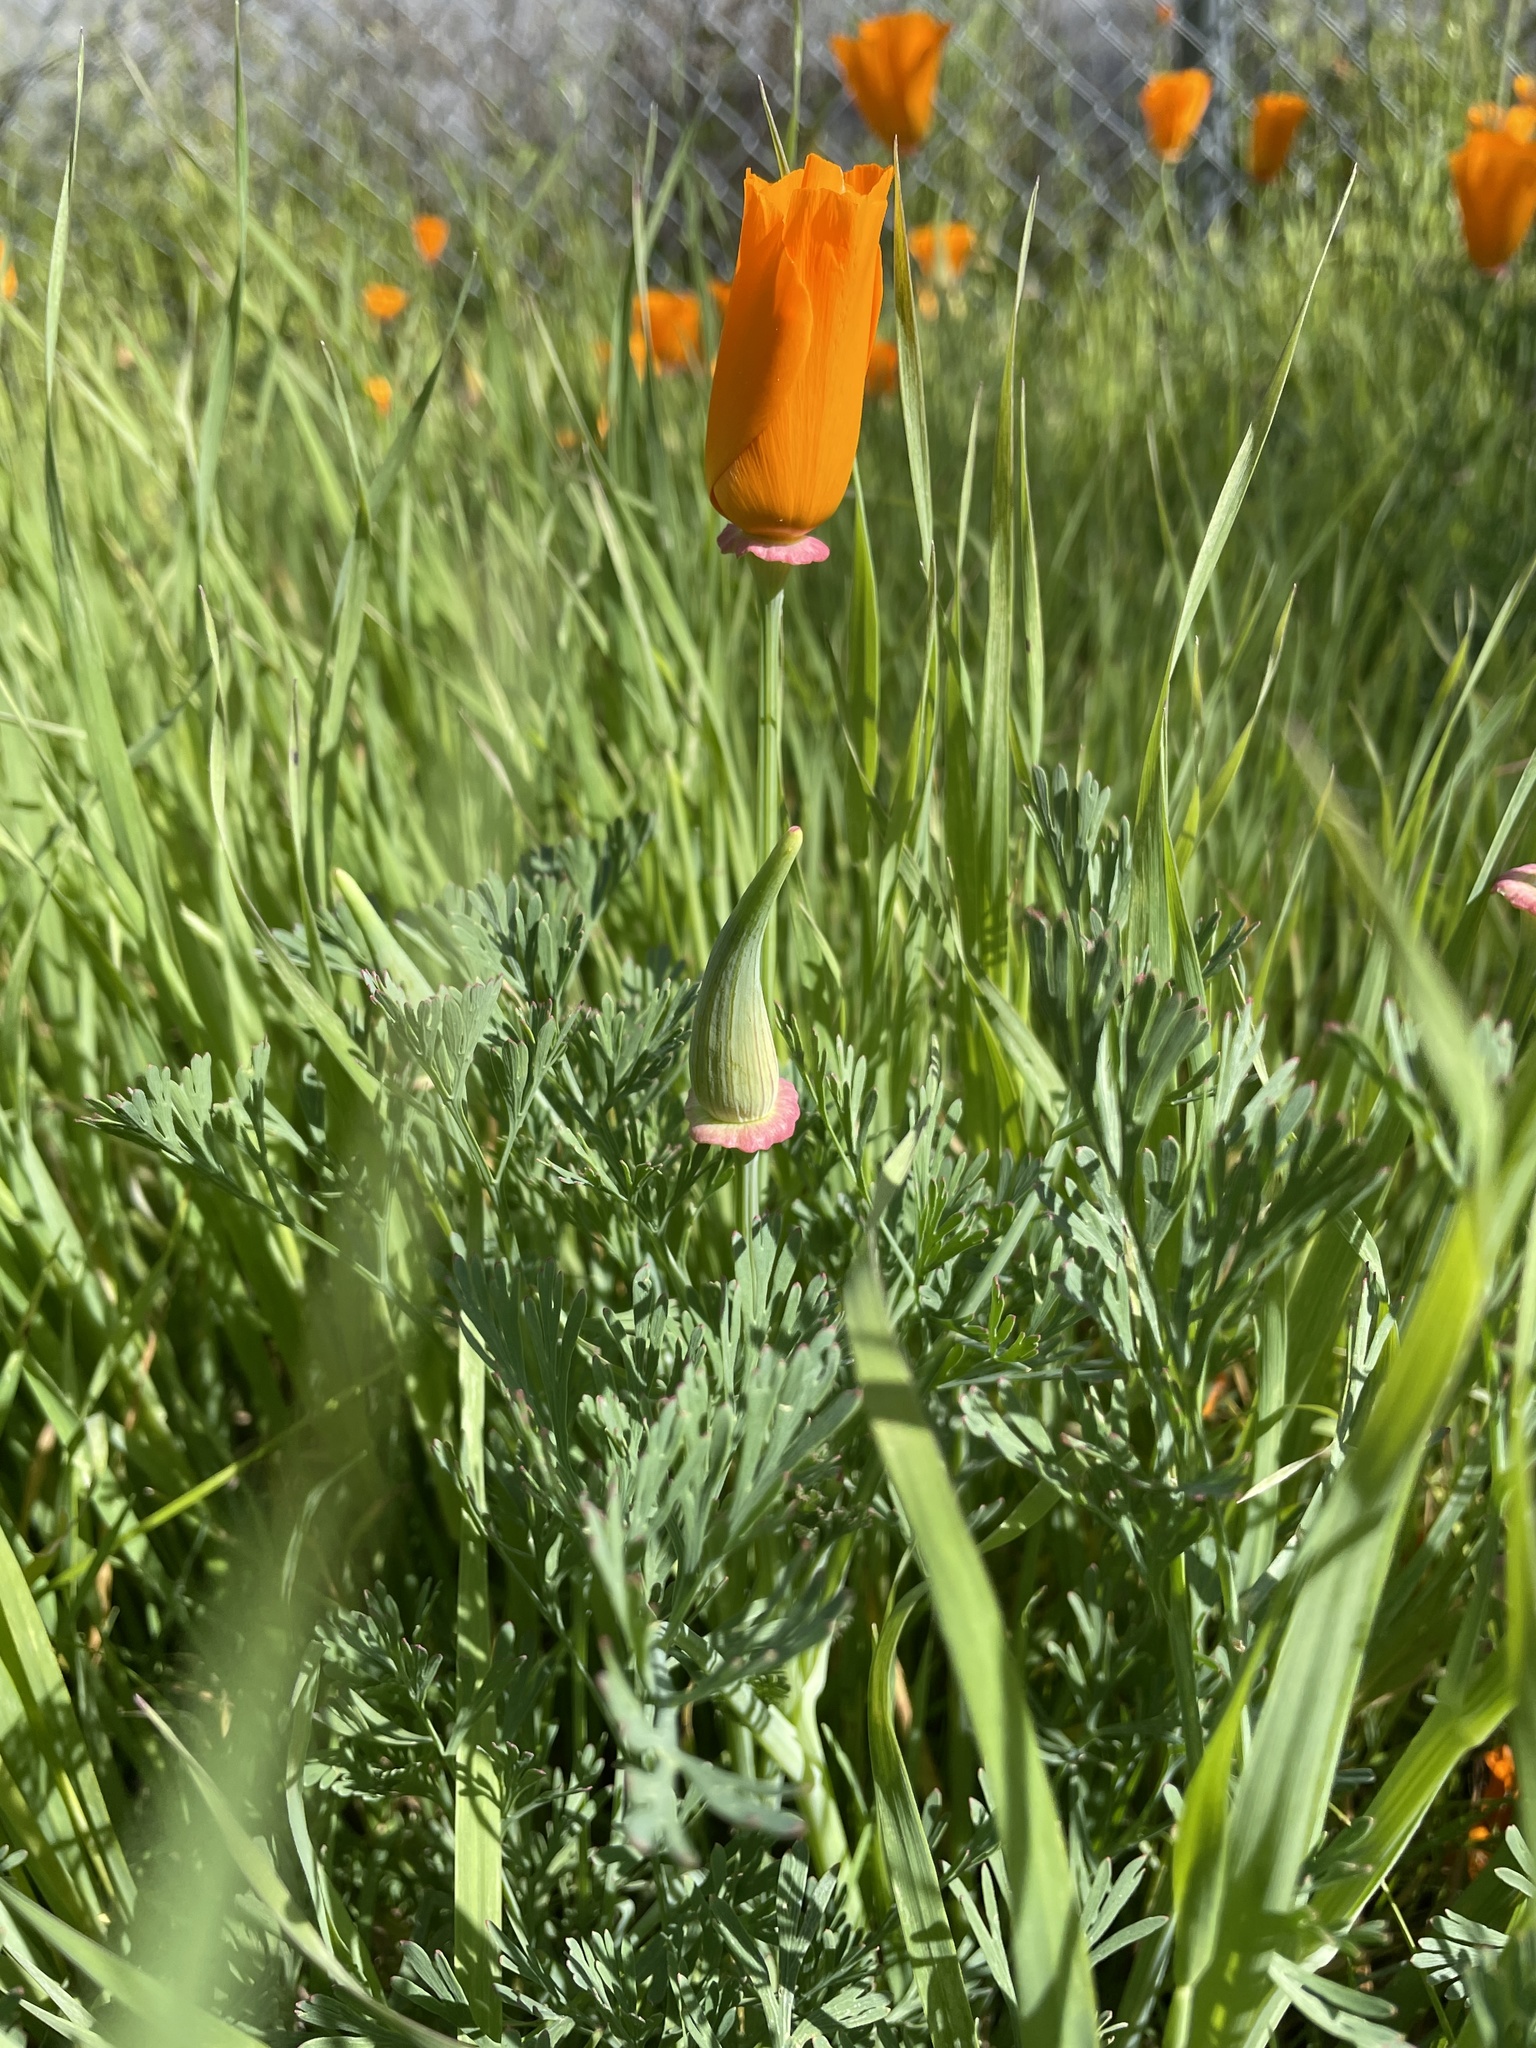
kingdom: Plantae
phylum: Tracheophyta
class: Magnoliopsida
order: Ranunculales
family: Papaveraceae
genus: Eschscholzia
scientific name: Eschscholzia californica
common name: California poppy
